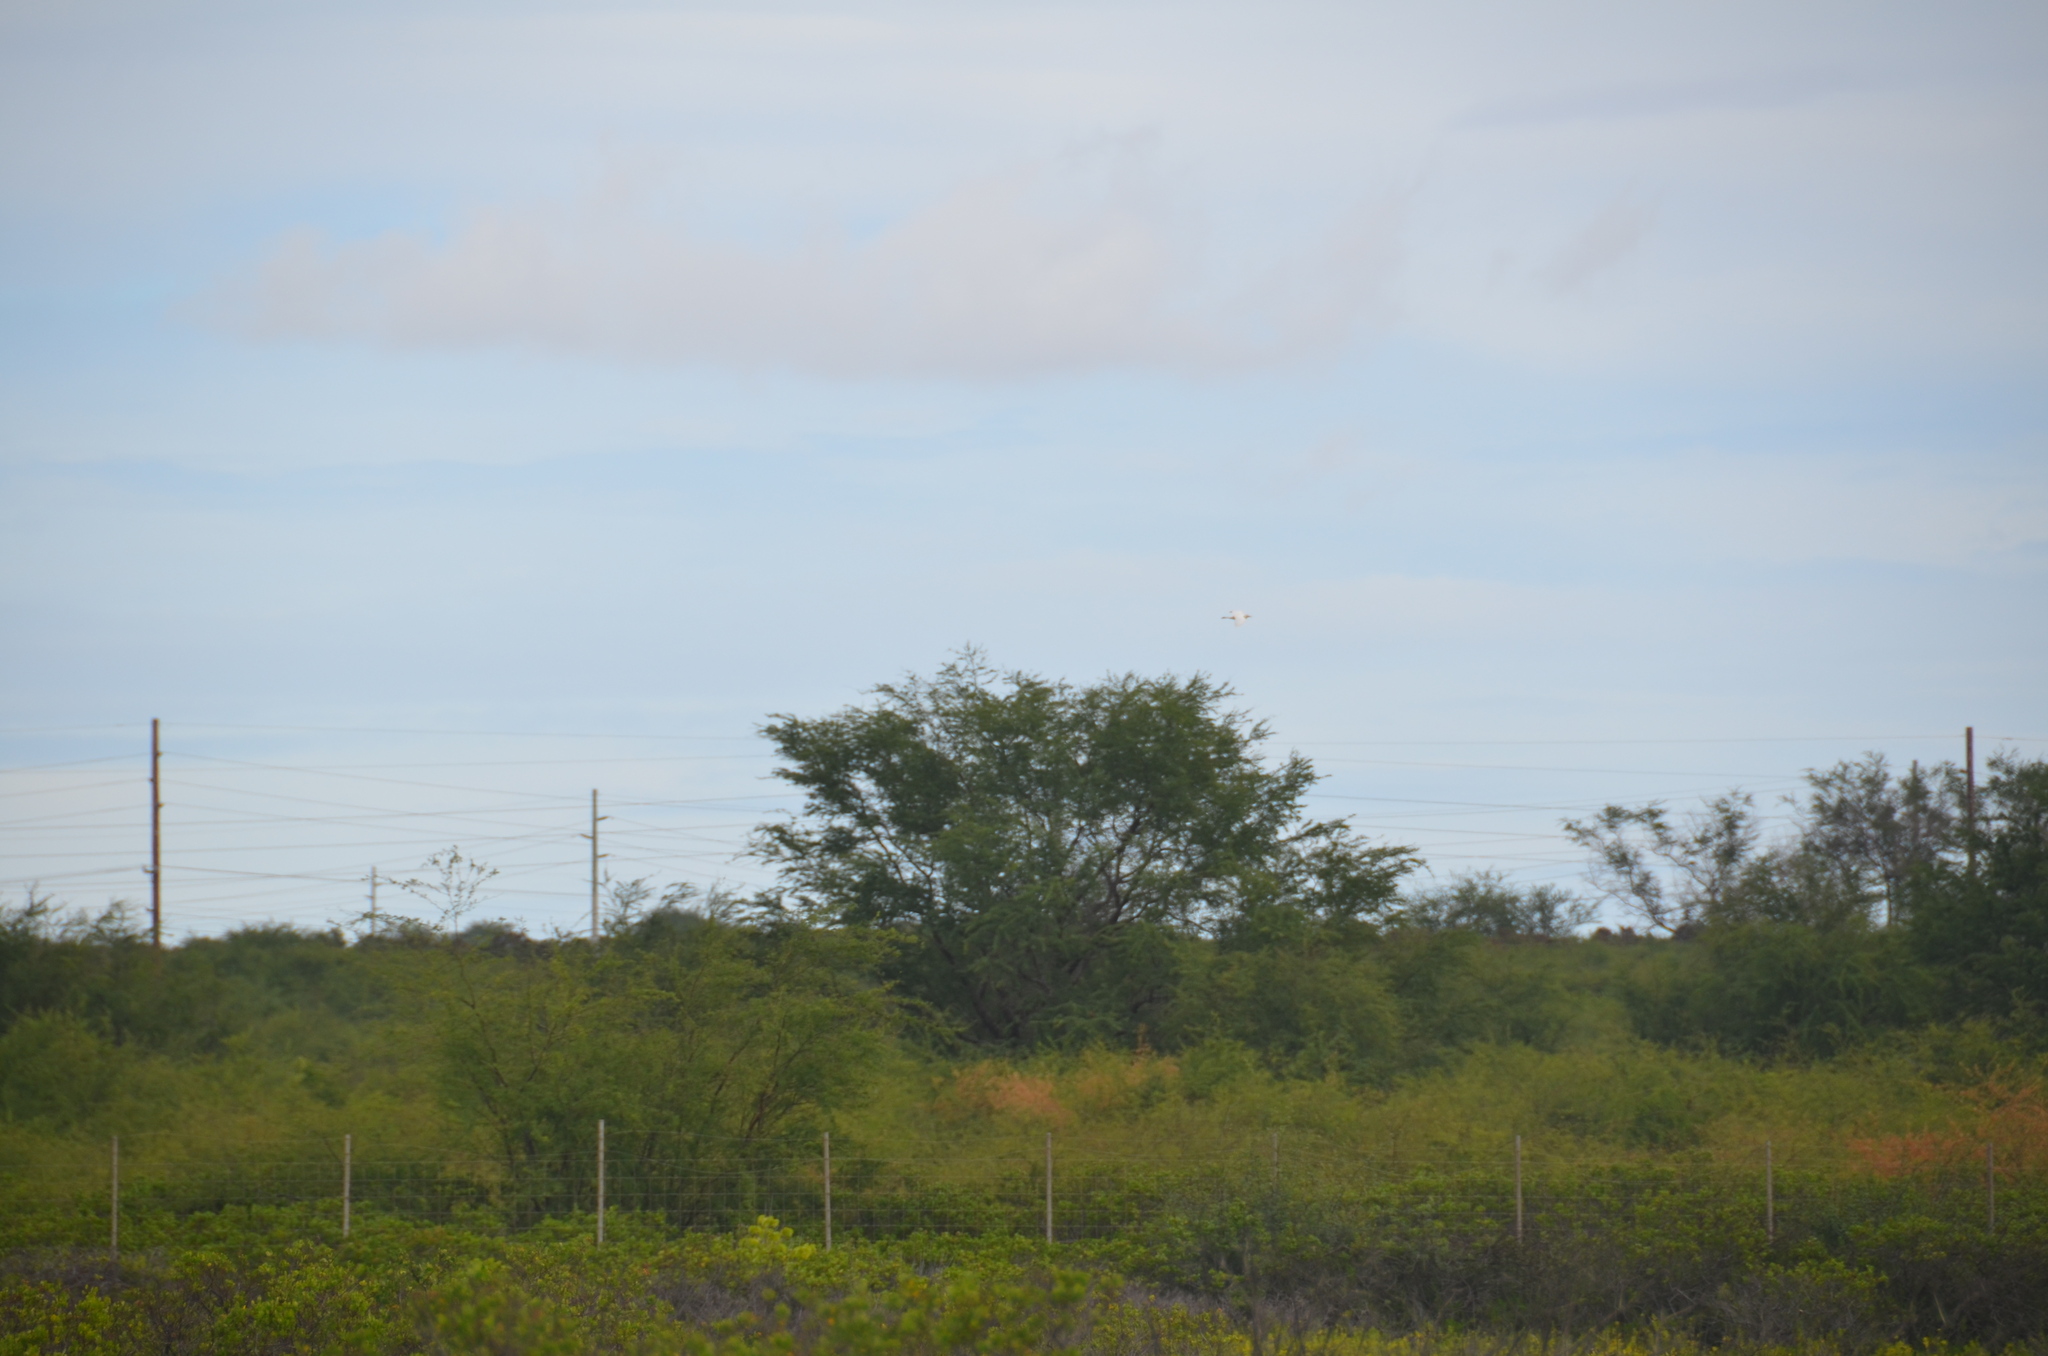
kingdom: Plantae
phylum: Tracheophyta
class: Magnoliopsida
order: Fabales
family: Fabaceae
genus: Prosopis
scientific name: Prosopis pallida
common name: Mesquite
